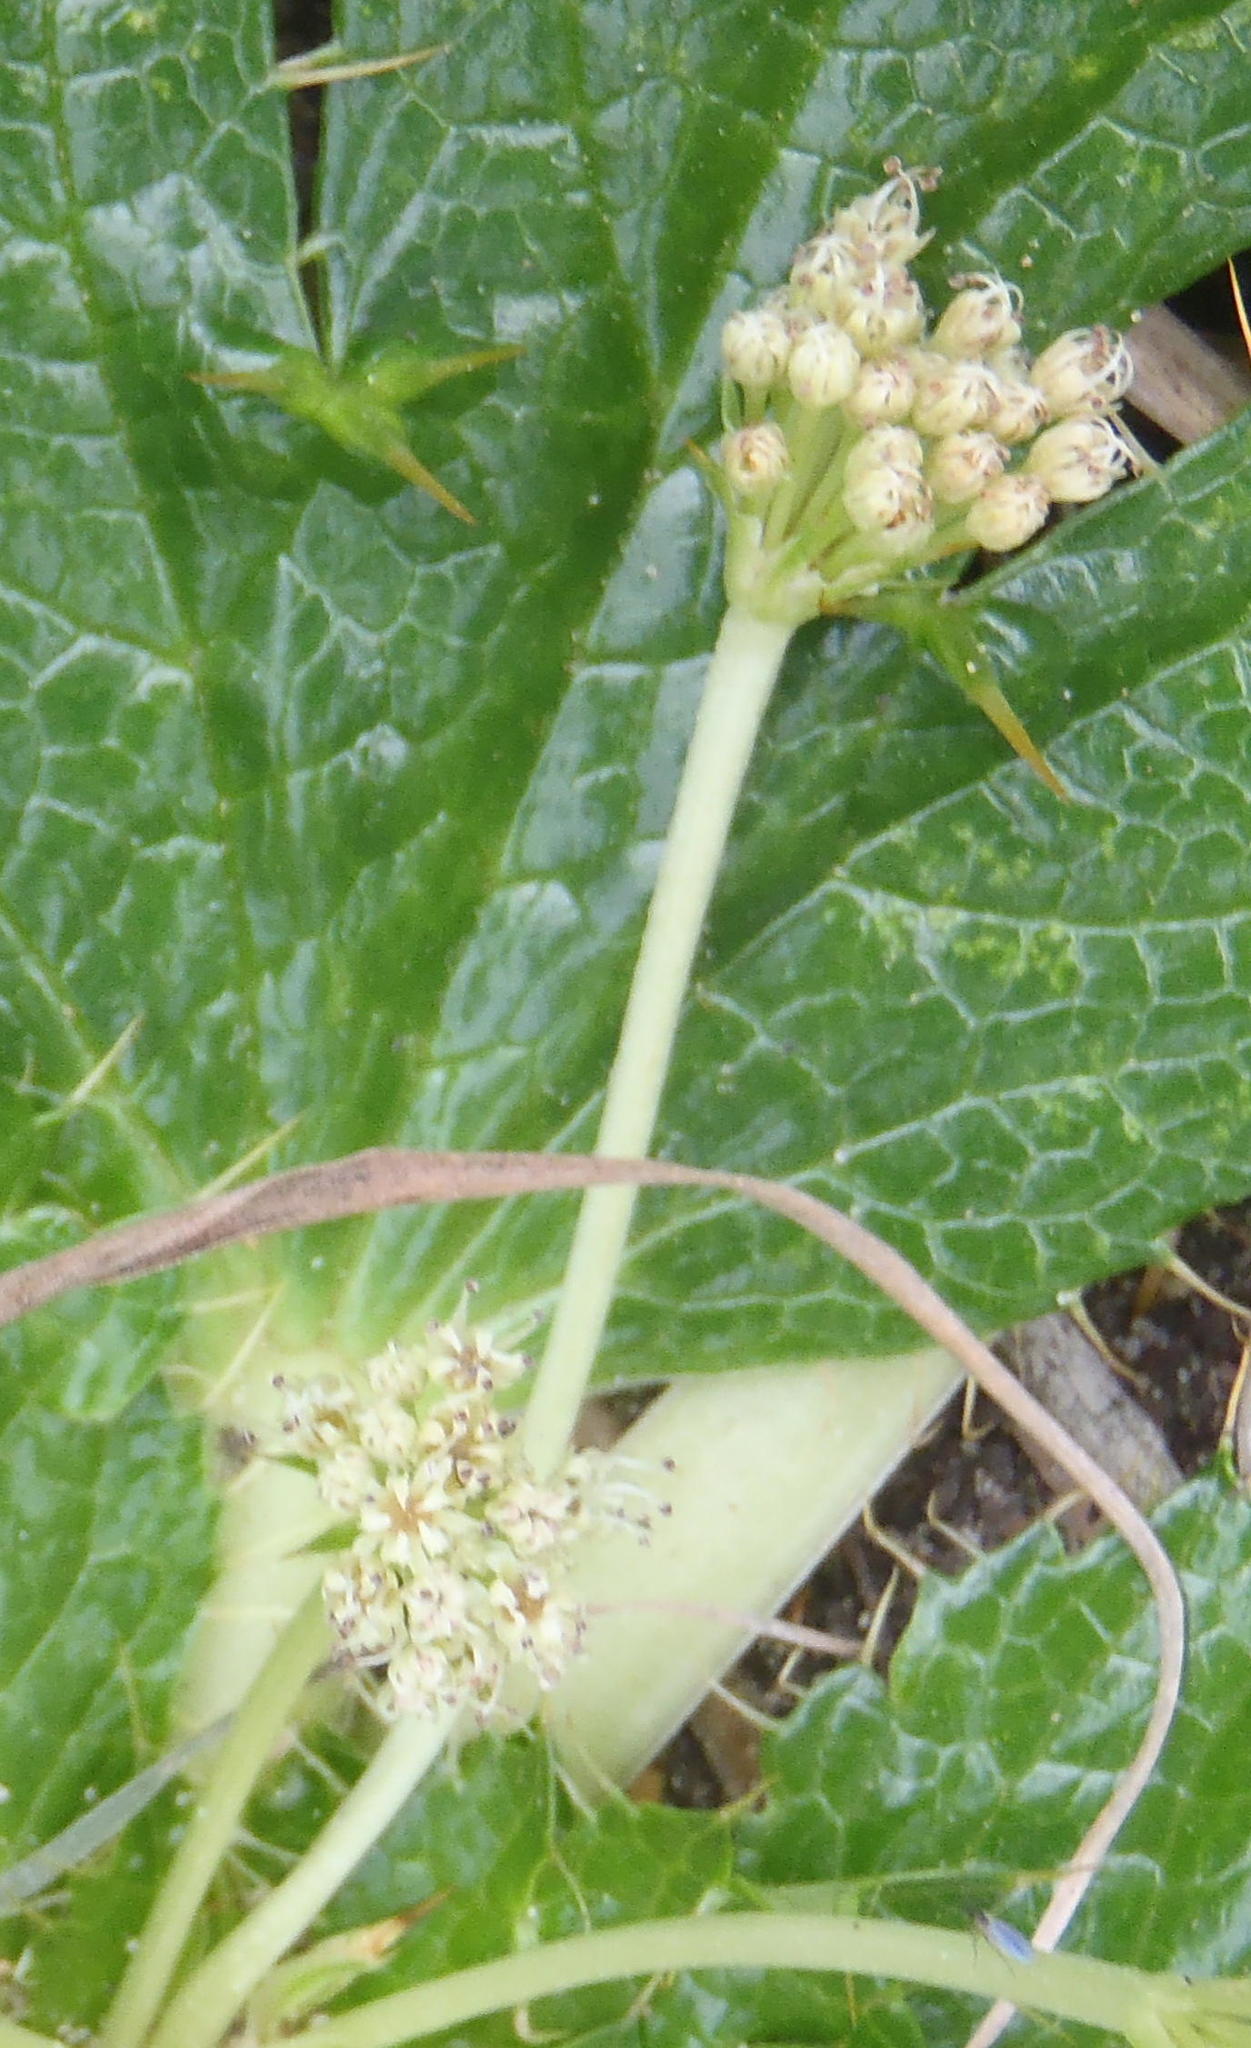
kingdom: Plantae
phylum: Tracheophyta
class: Magnoliopsida
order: Apiales
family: Apiaceae
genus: Arctopus
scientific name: Arctopus echinatus
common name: Platdoring
